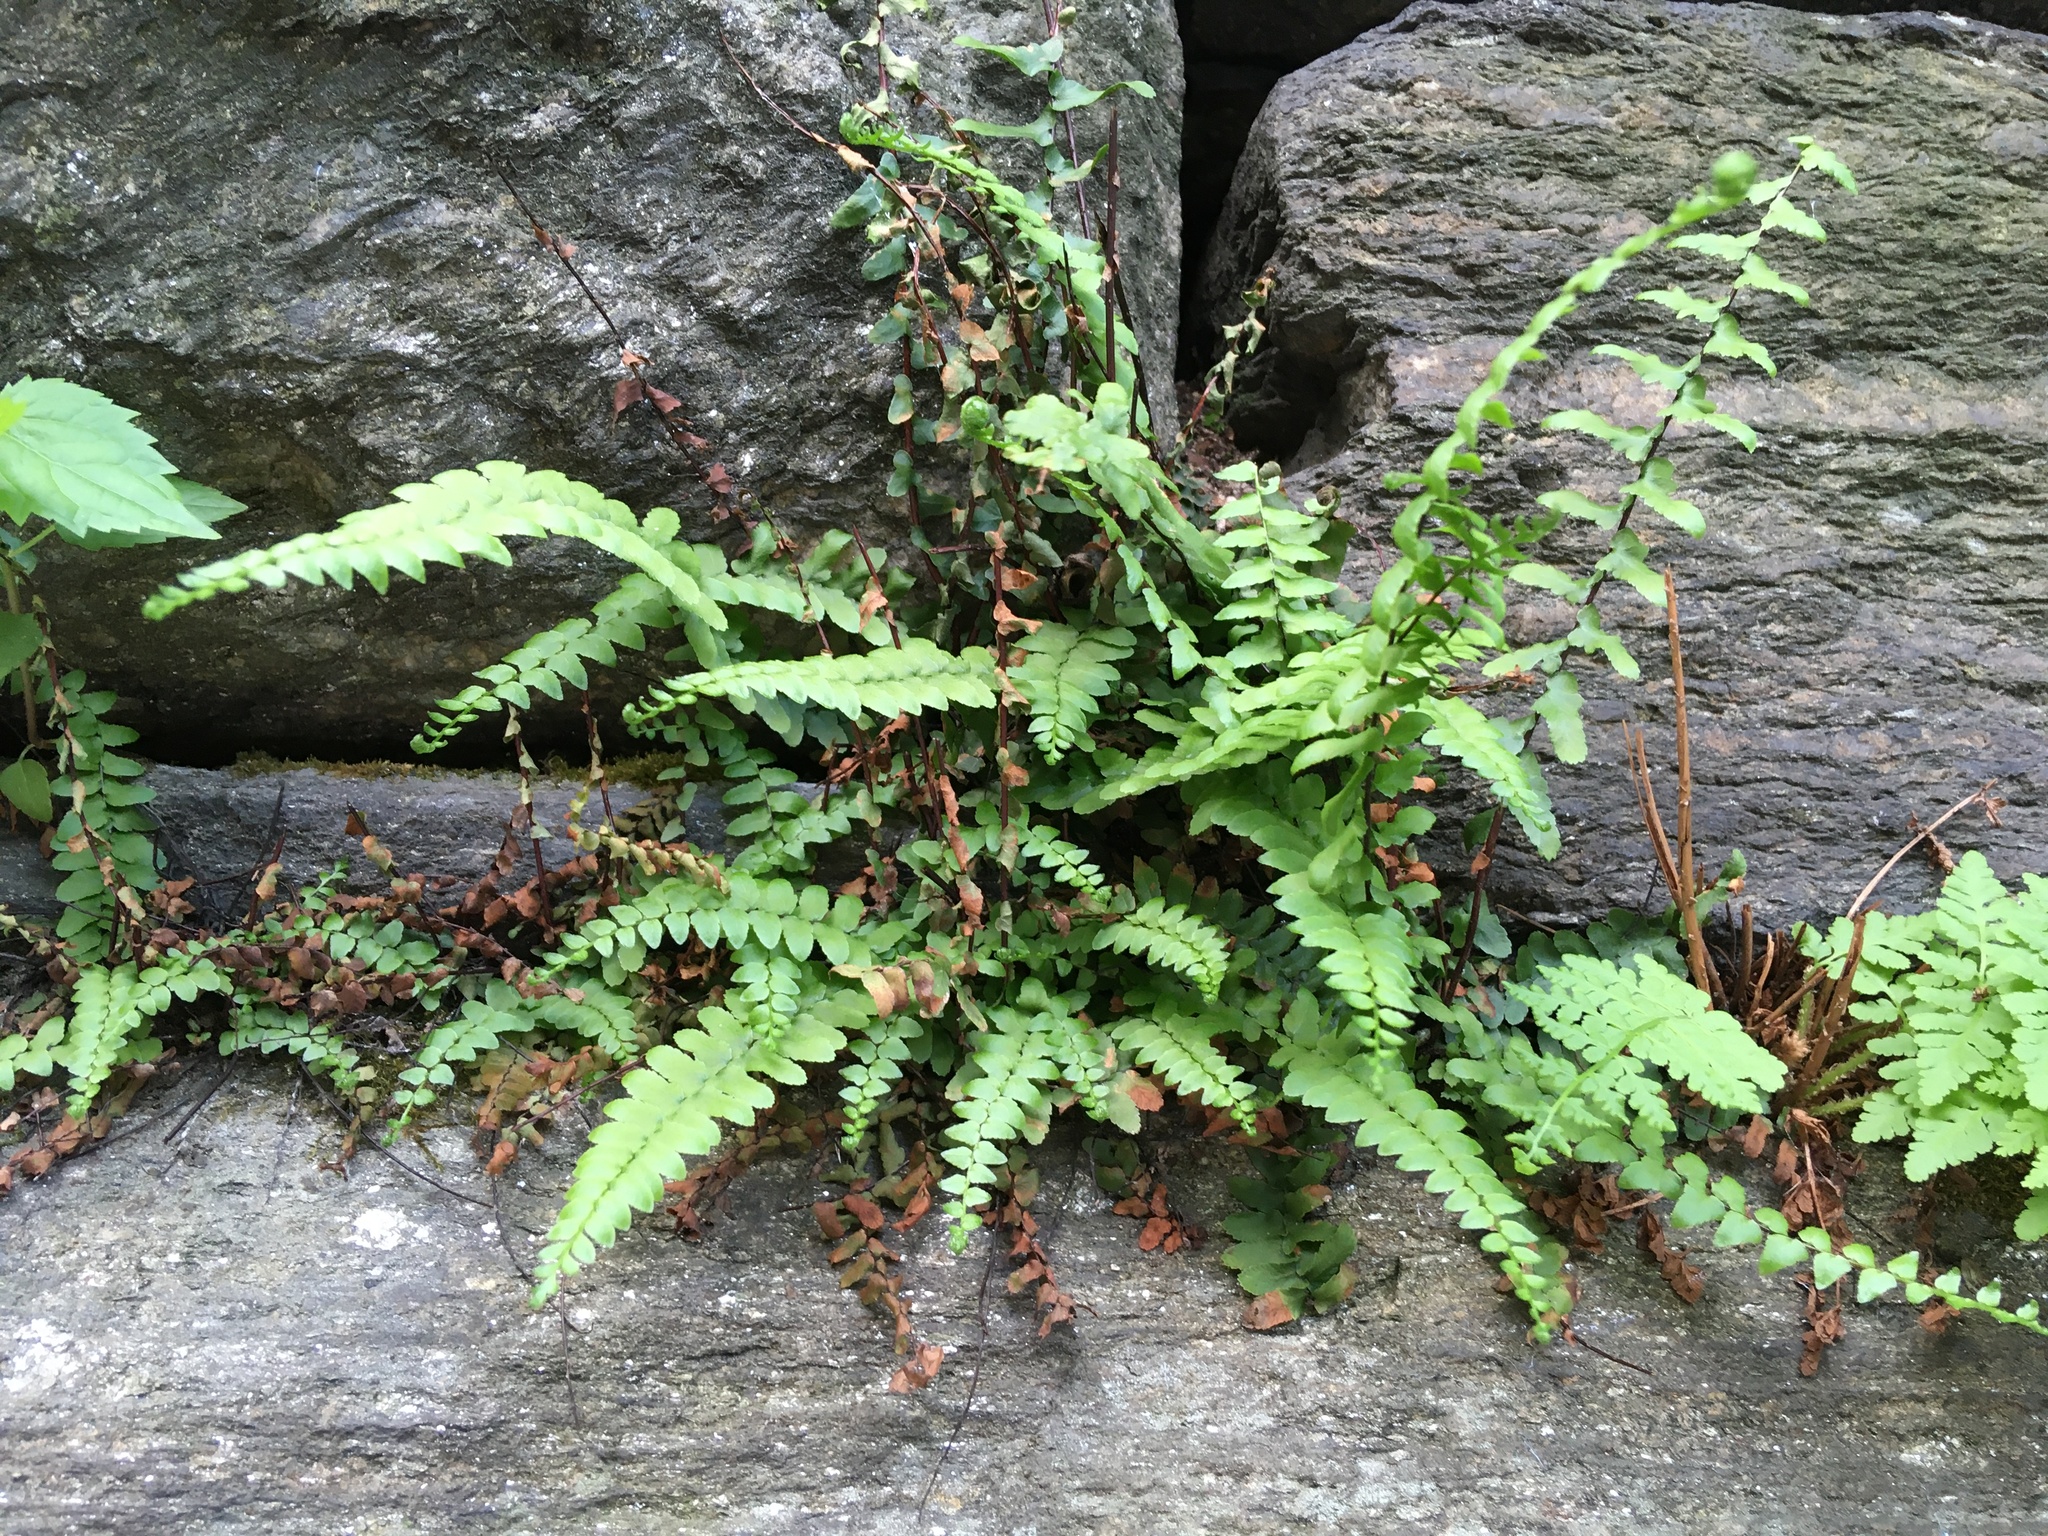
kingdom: Plantae
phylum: Tracheophyta
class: Polypodiopsida
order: Polypodiales
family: Aspleniaceae
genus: Asplenium
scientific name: Asplenium platyneuron
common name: Ebony spleenwort
